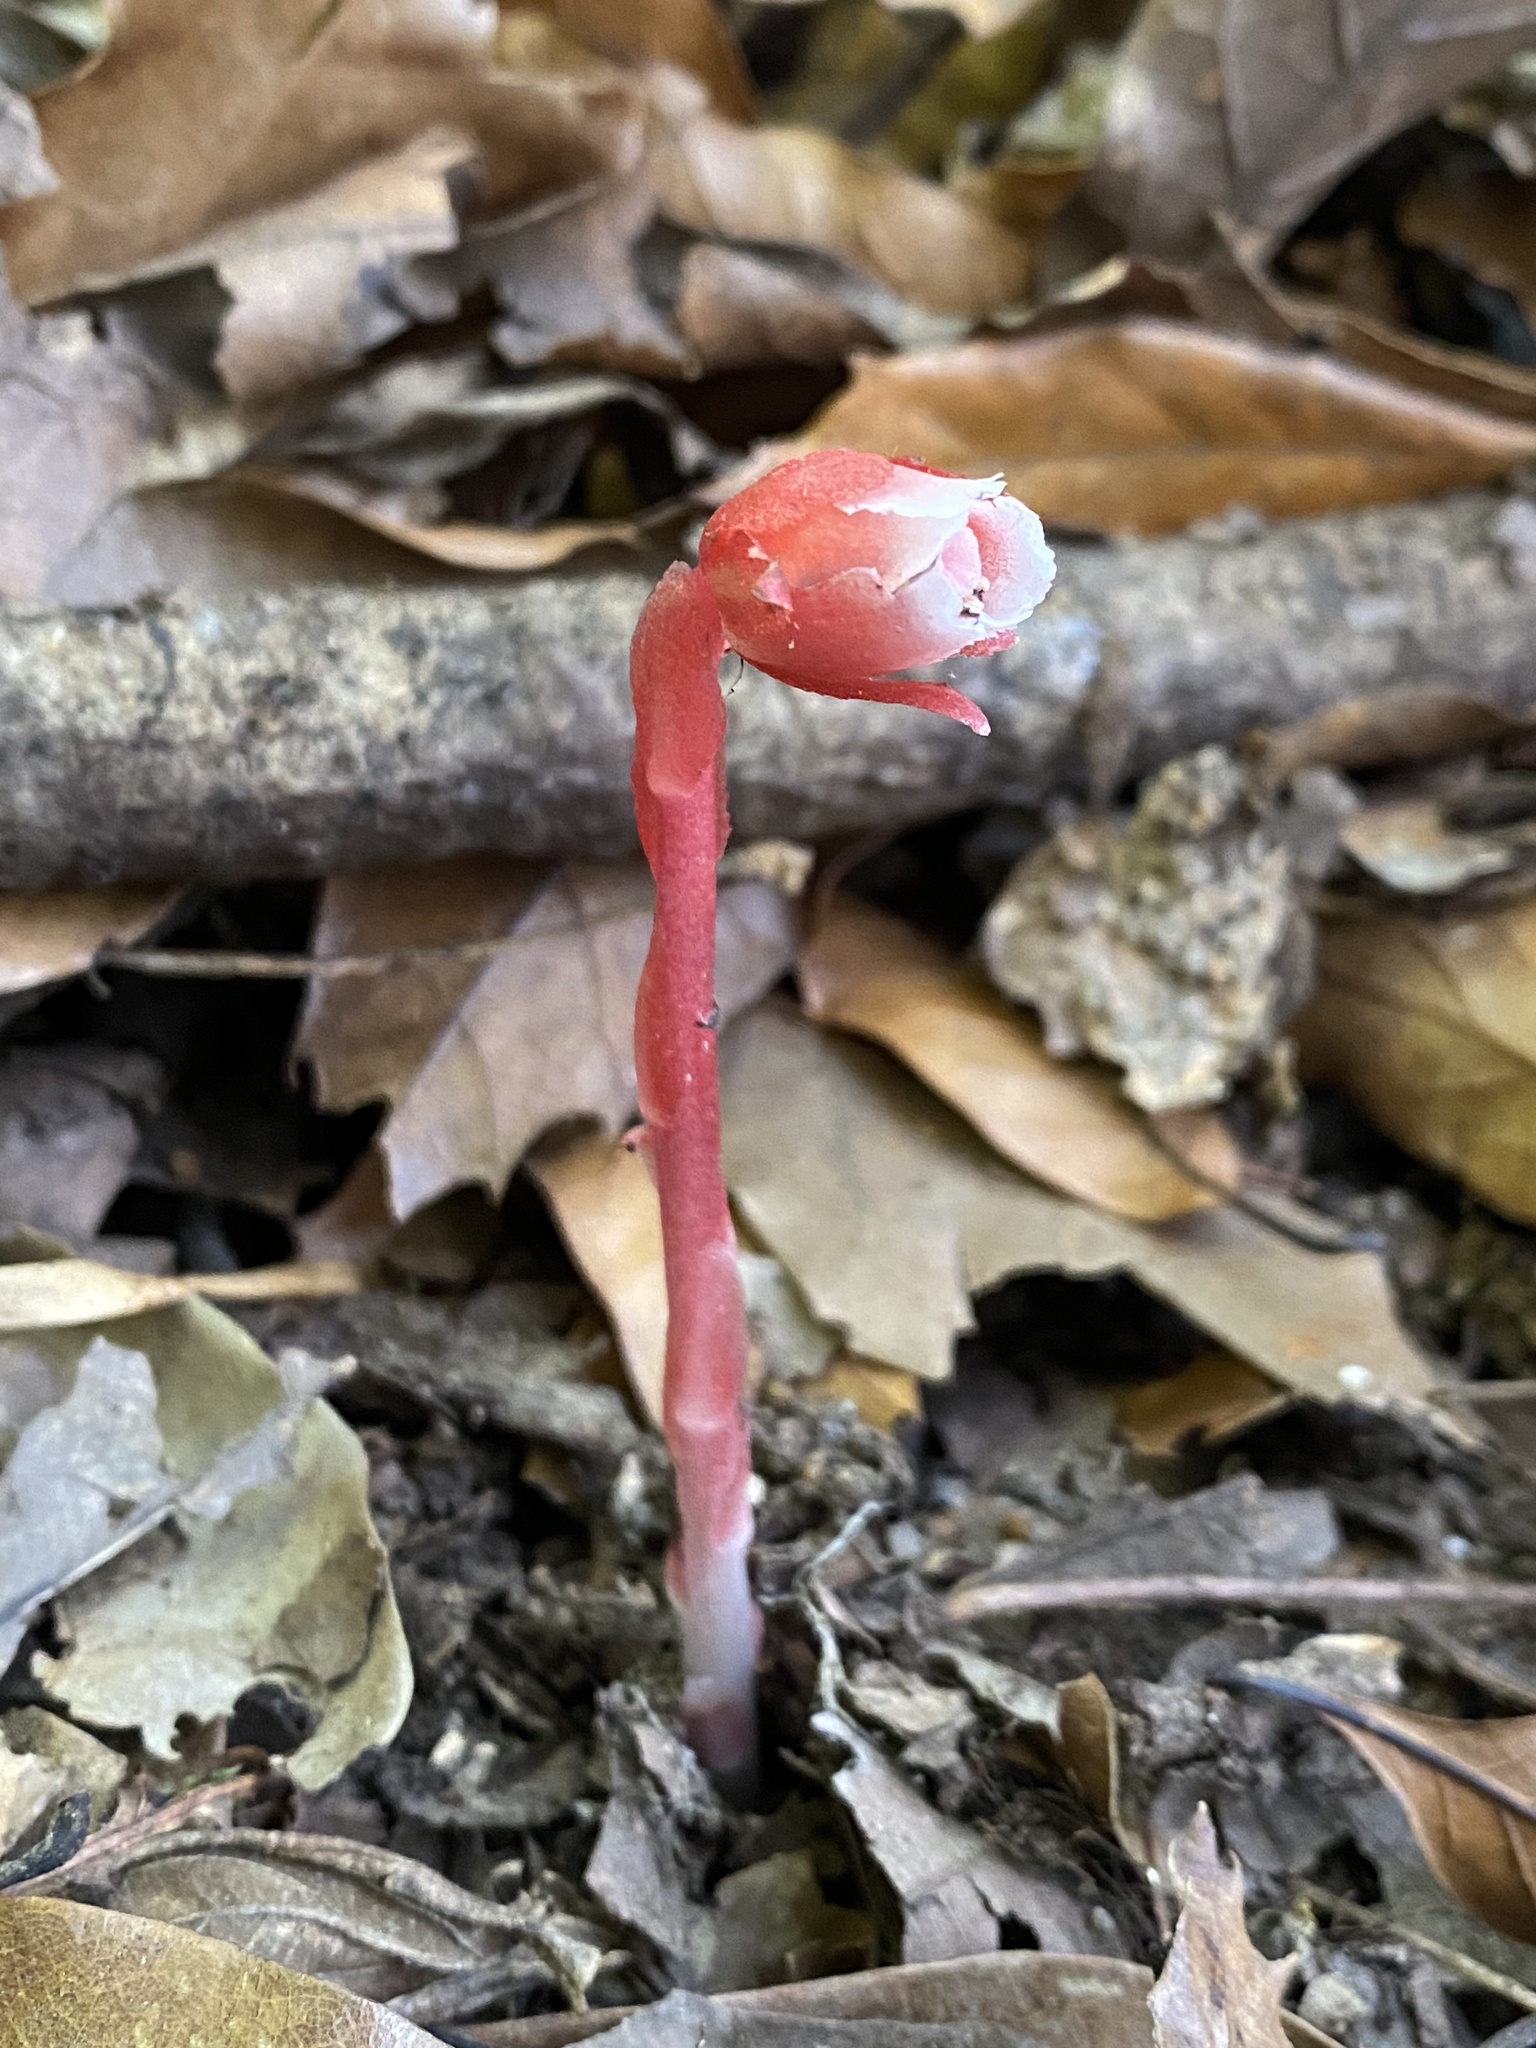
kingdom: Plantae
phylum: Tracheophyta
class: Magnoliopsida
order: Ericales
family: Ericaceae
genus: Monotropa
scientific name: Monotropa coccinea
